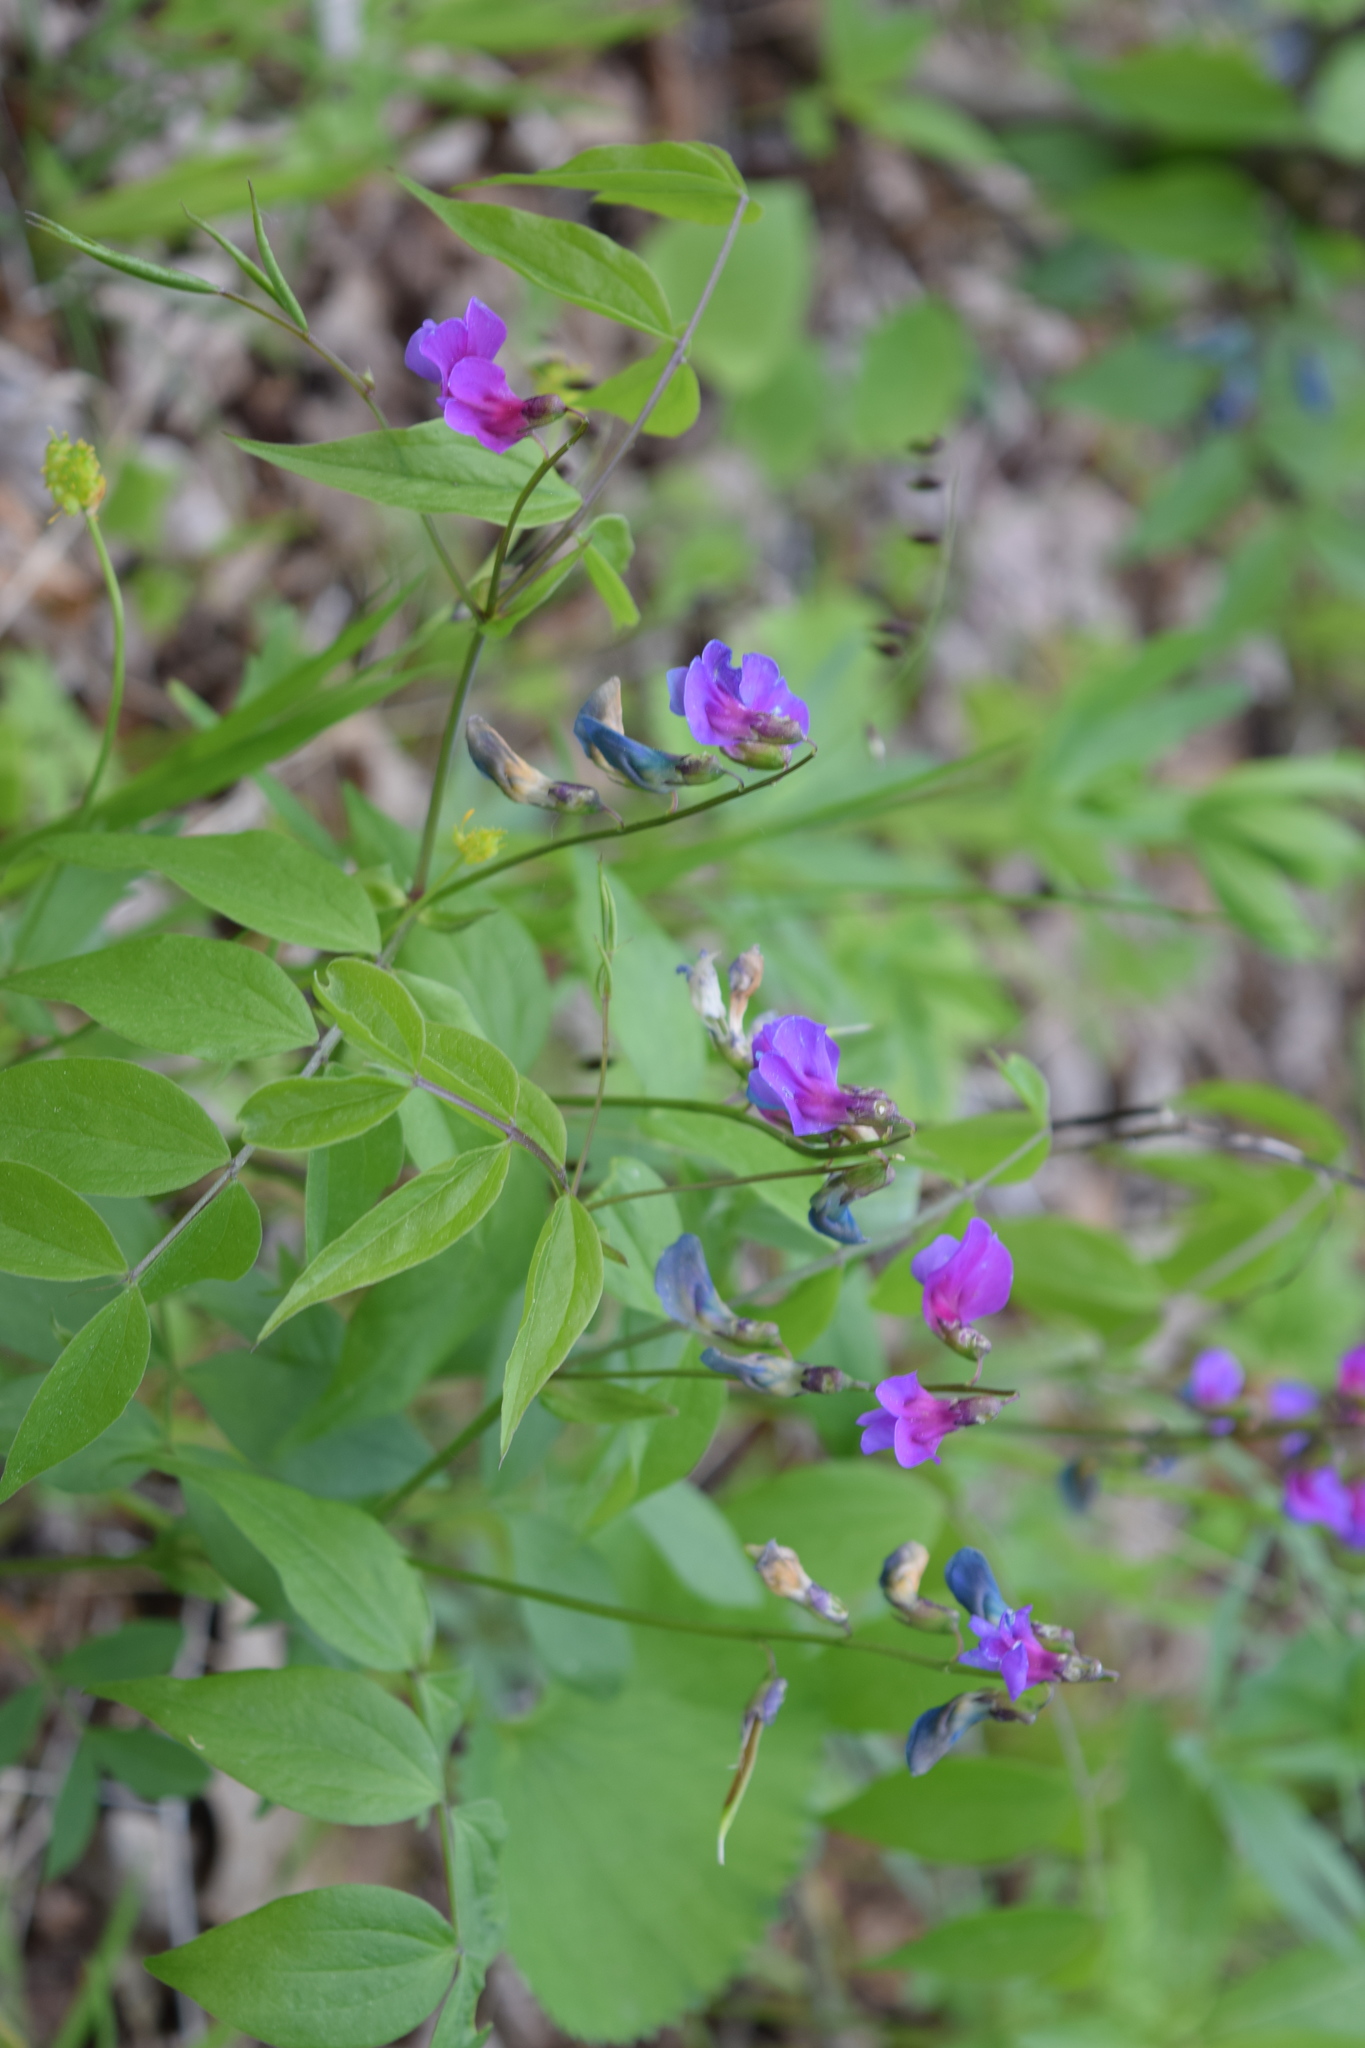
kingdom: Plantae
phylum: Tracheophyta
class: Magnoliopsida
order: Fabales
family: Fabaceae
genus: Lathyrus
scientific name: Lathyrus vernus
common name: Spring pea
